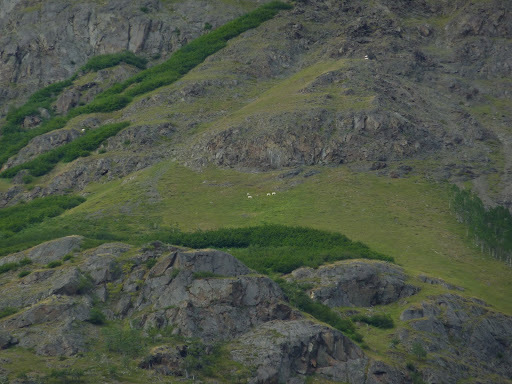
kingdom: Animalia
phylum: Chordata
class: Mammalia
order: Artiodactyla
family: Bovidae
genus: Oreamnos
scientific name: Oreamnos americanus
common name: Mountain goat
